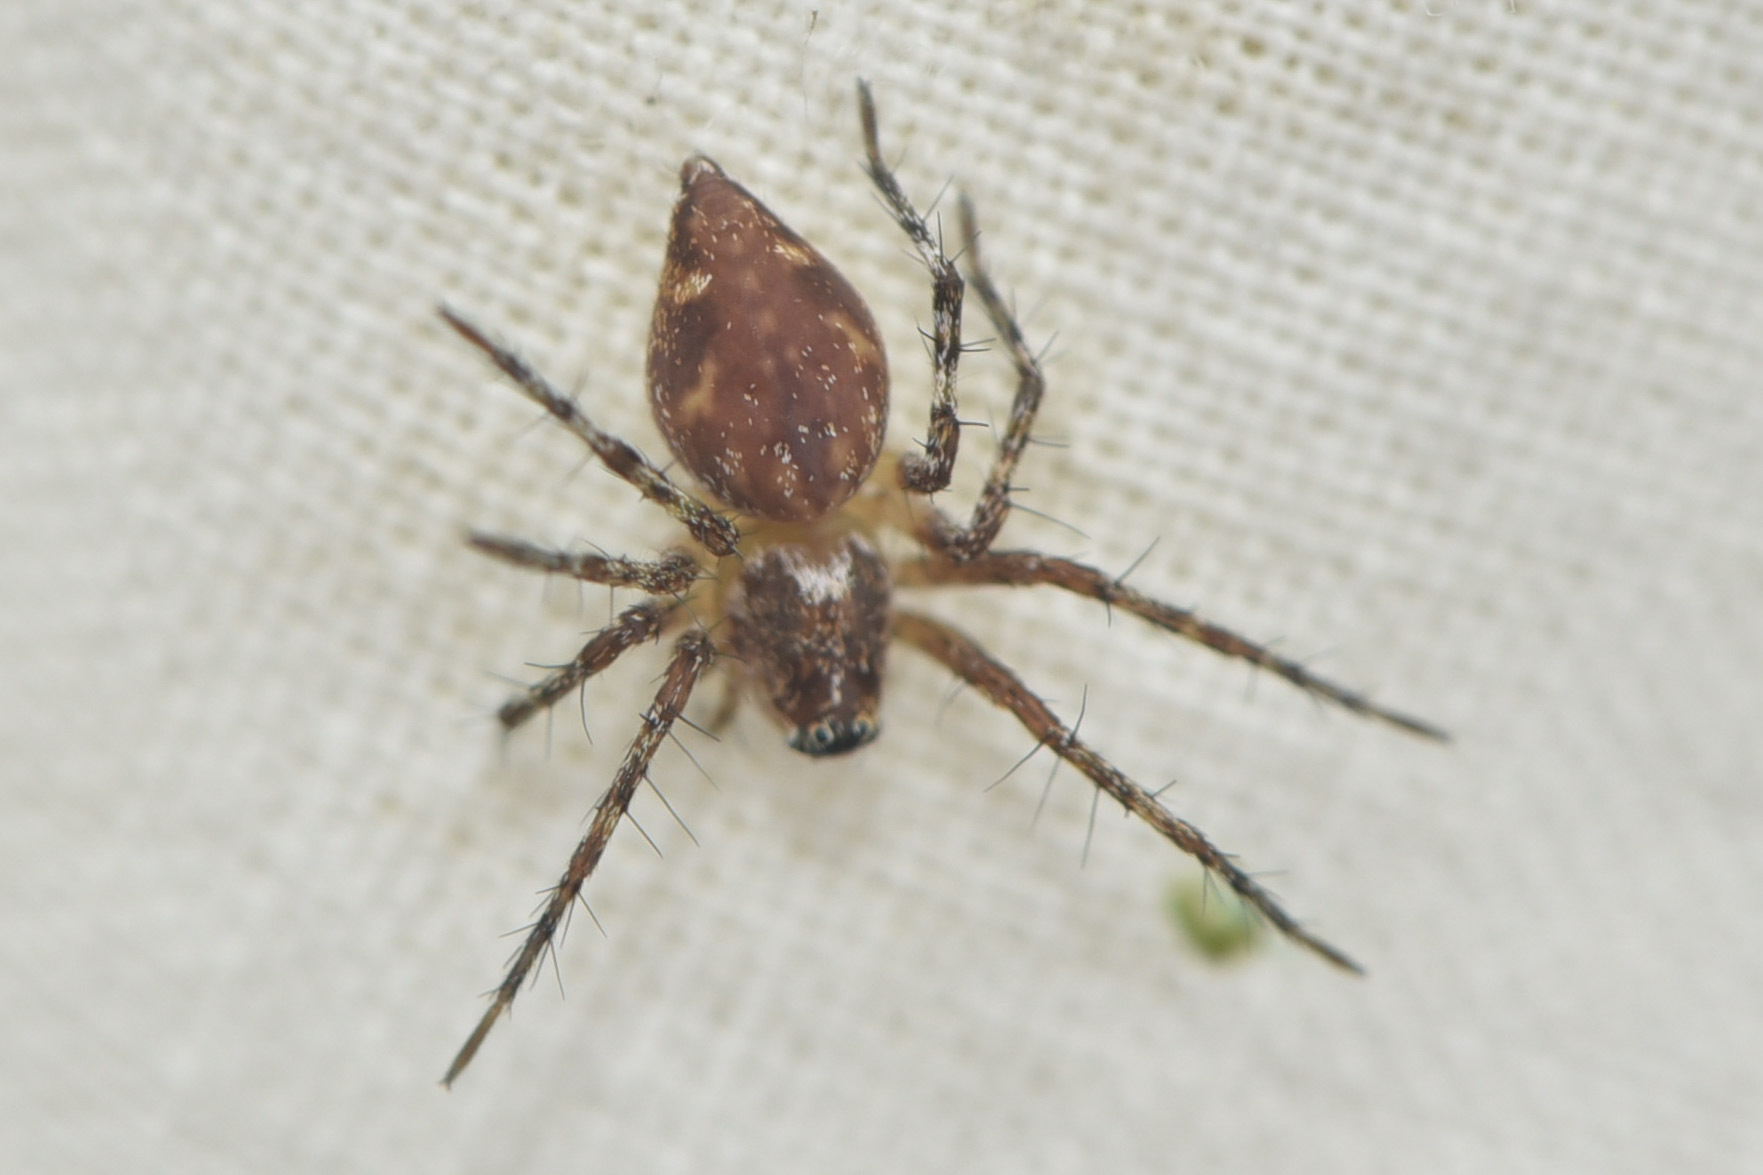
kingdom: Animalia
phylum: Arthropoda
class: Arachnida
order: Araneae
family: Oxyopidae
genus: Oxyopes
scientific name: Oxyopes scalaris
